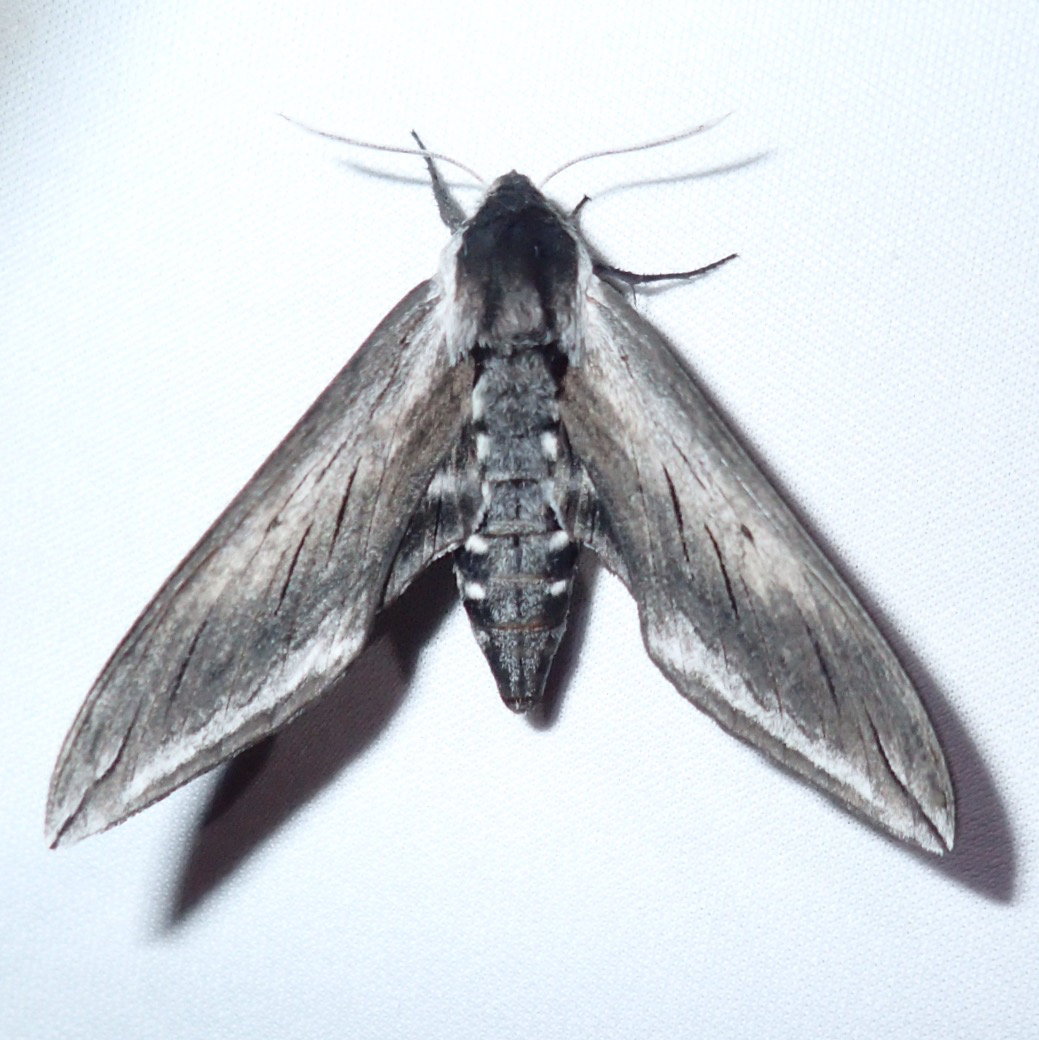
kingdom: Animalia
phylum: Arthropoda
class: Insecta
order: Lepidoptera
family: Sphingidae
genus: Sphinx
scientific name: Sphinx perelegans
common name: Elegant sphinx
